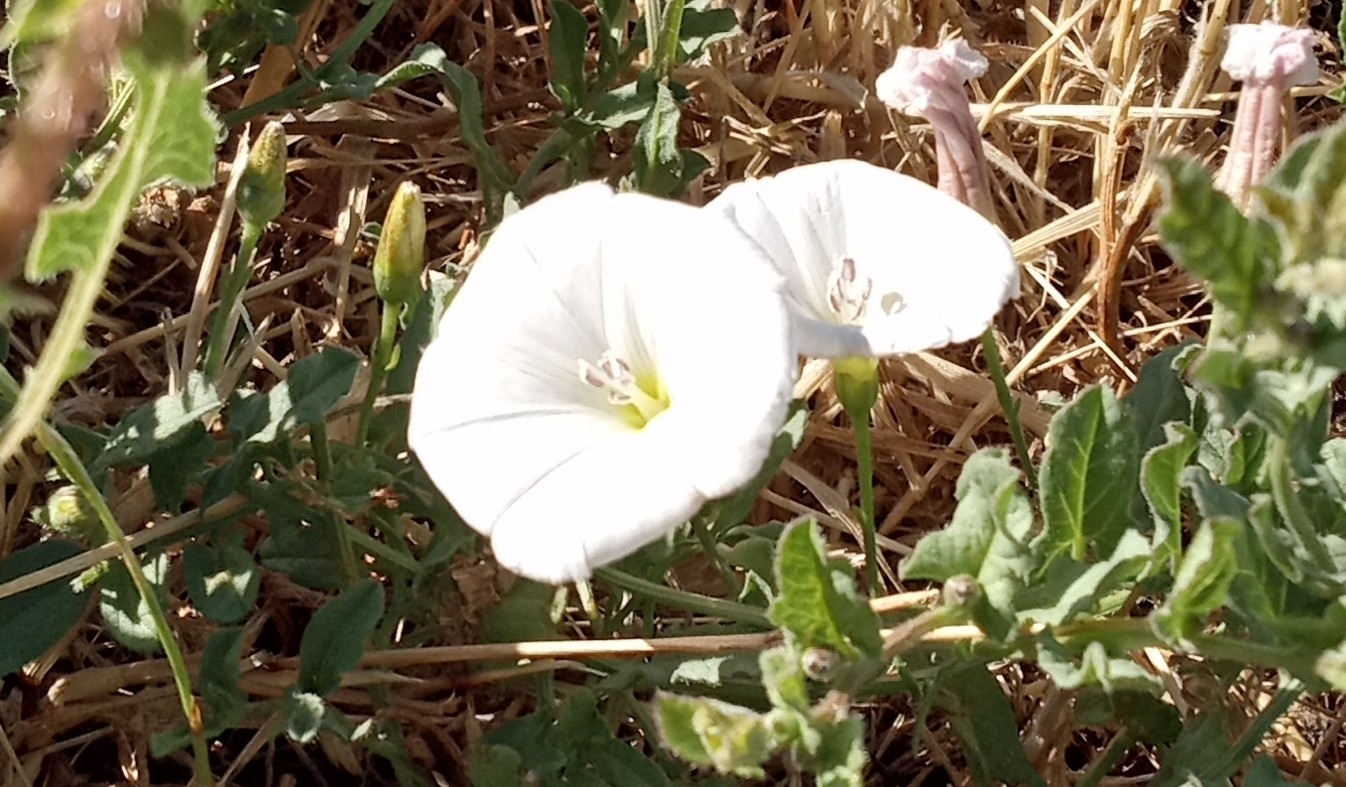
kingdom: Plantae
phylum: Tracheophyta
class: Magnoliopsida
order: Solanales
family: Convolvulaceae
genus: Convolvulus
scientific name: Convolvulus arvensis
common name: Field bindweed
